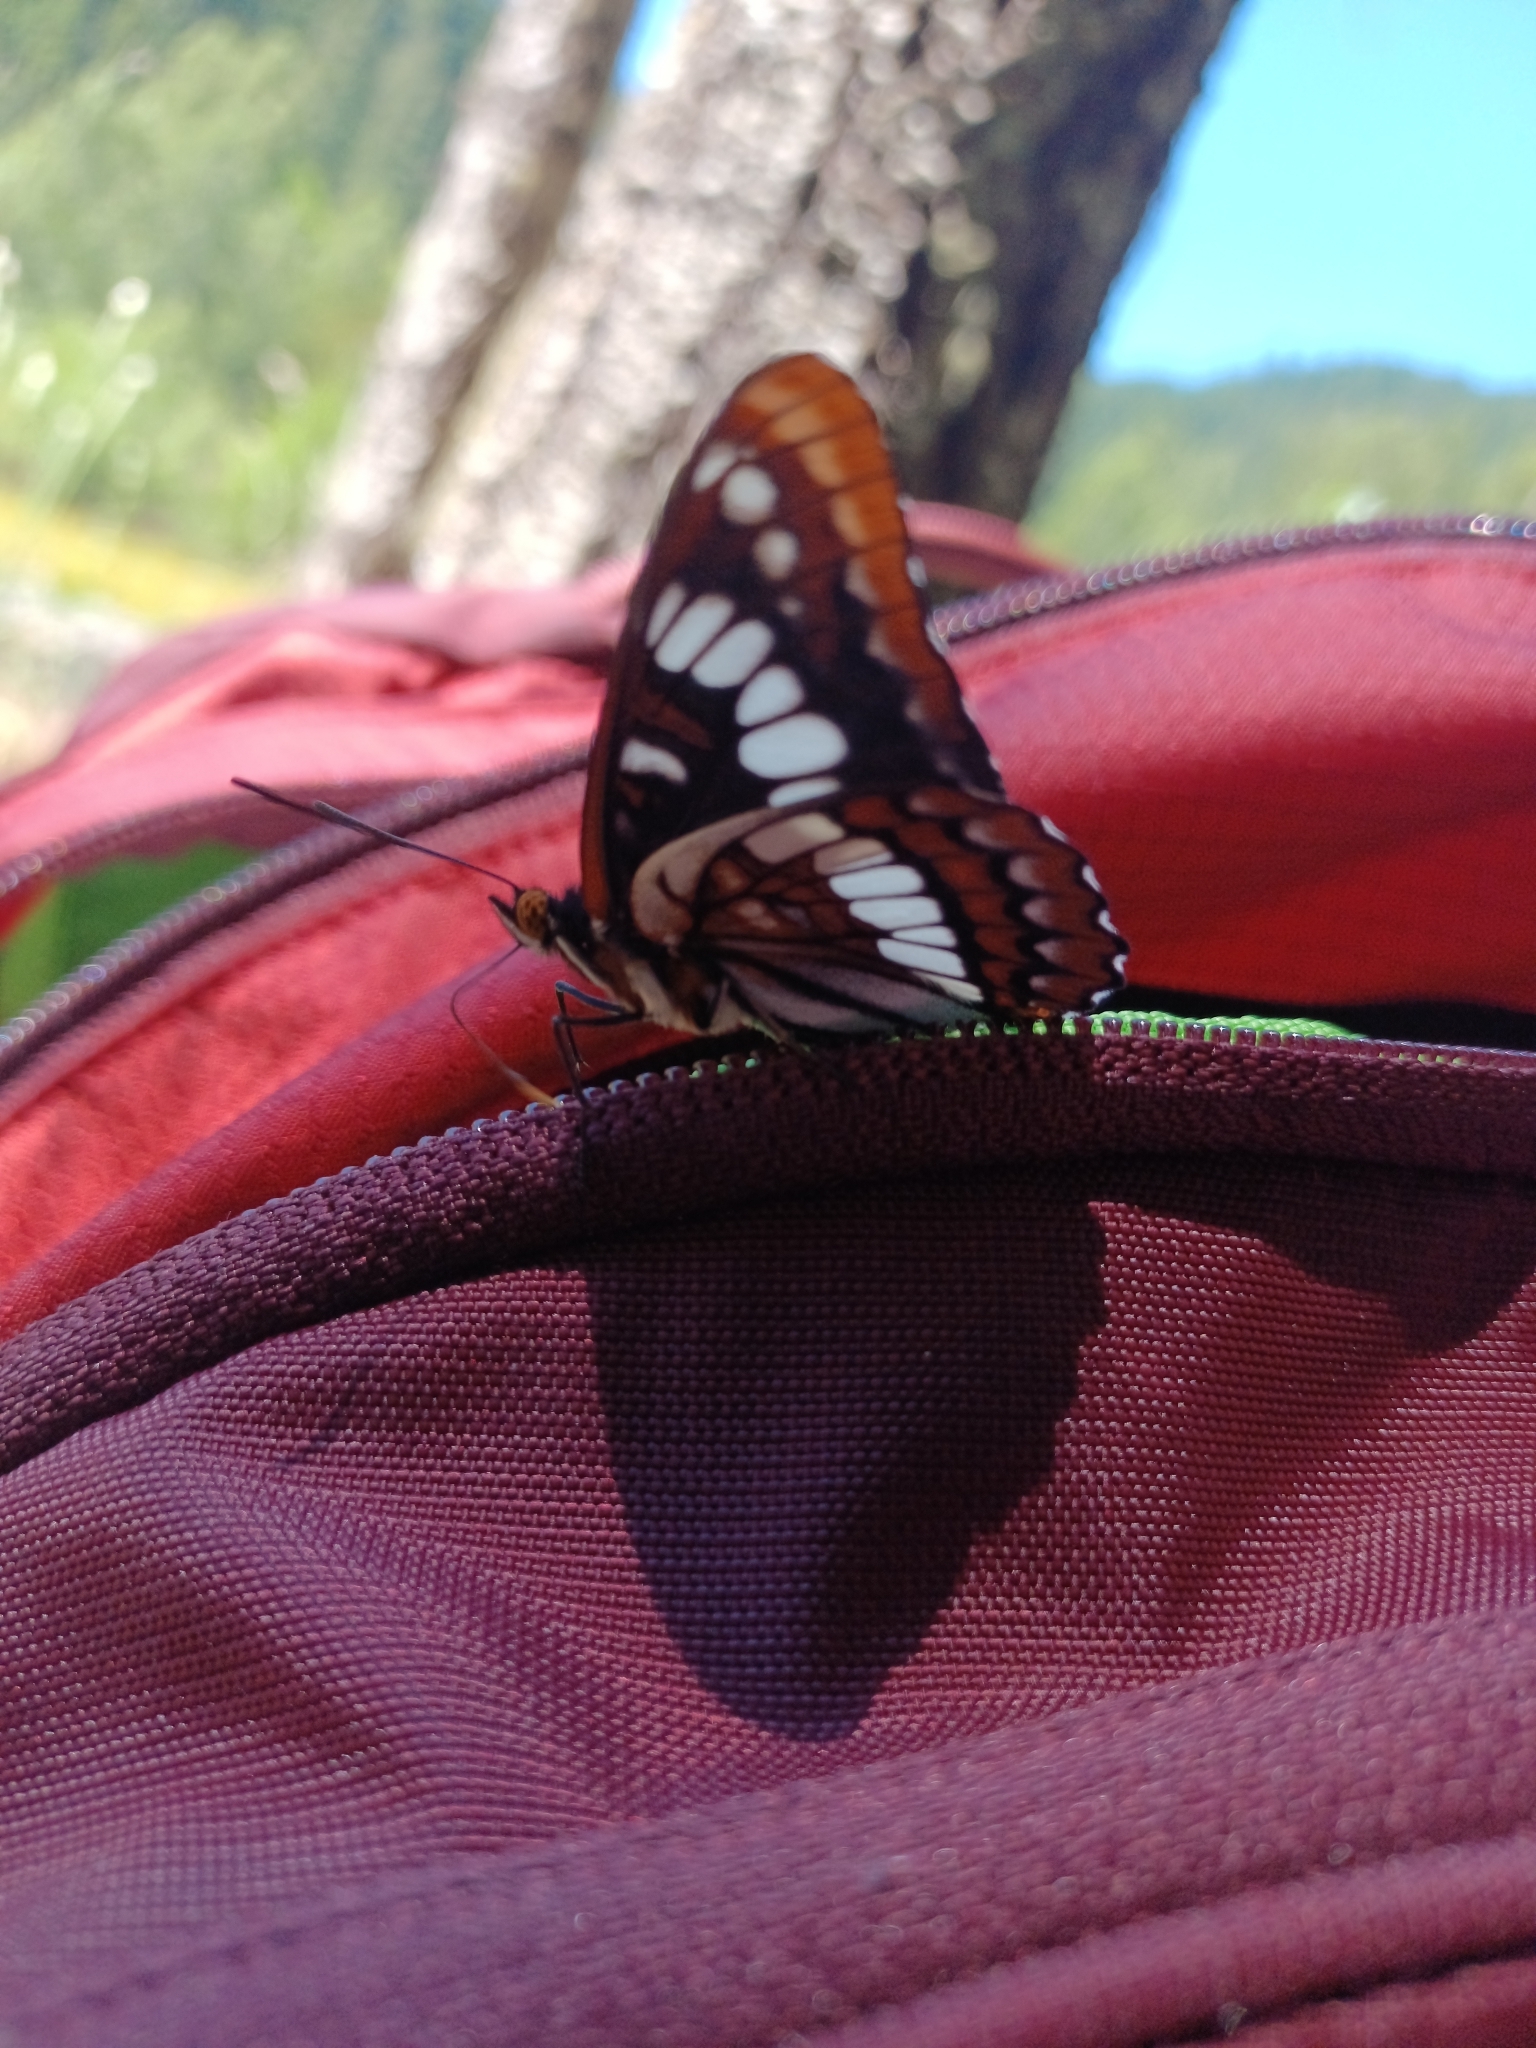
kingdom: Animalia
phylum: Arthropoda
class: Insecta
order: Lepidoptera
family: Nymphalidae
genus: Limenitis
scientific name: Limenitis lorquini
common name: Lorquin's admiral
